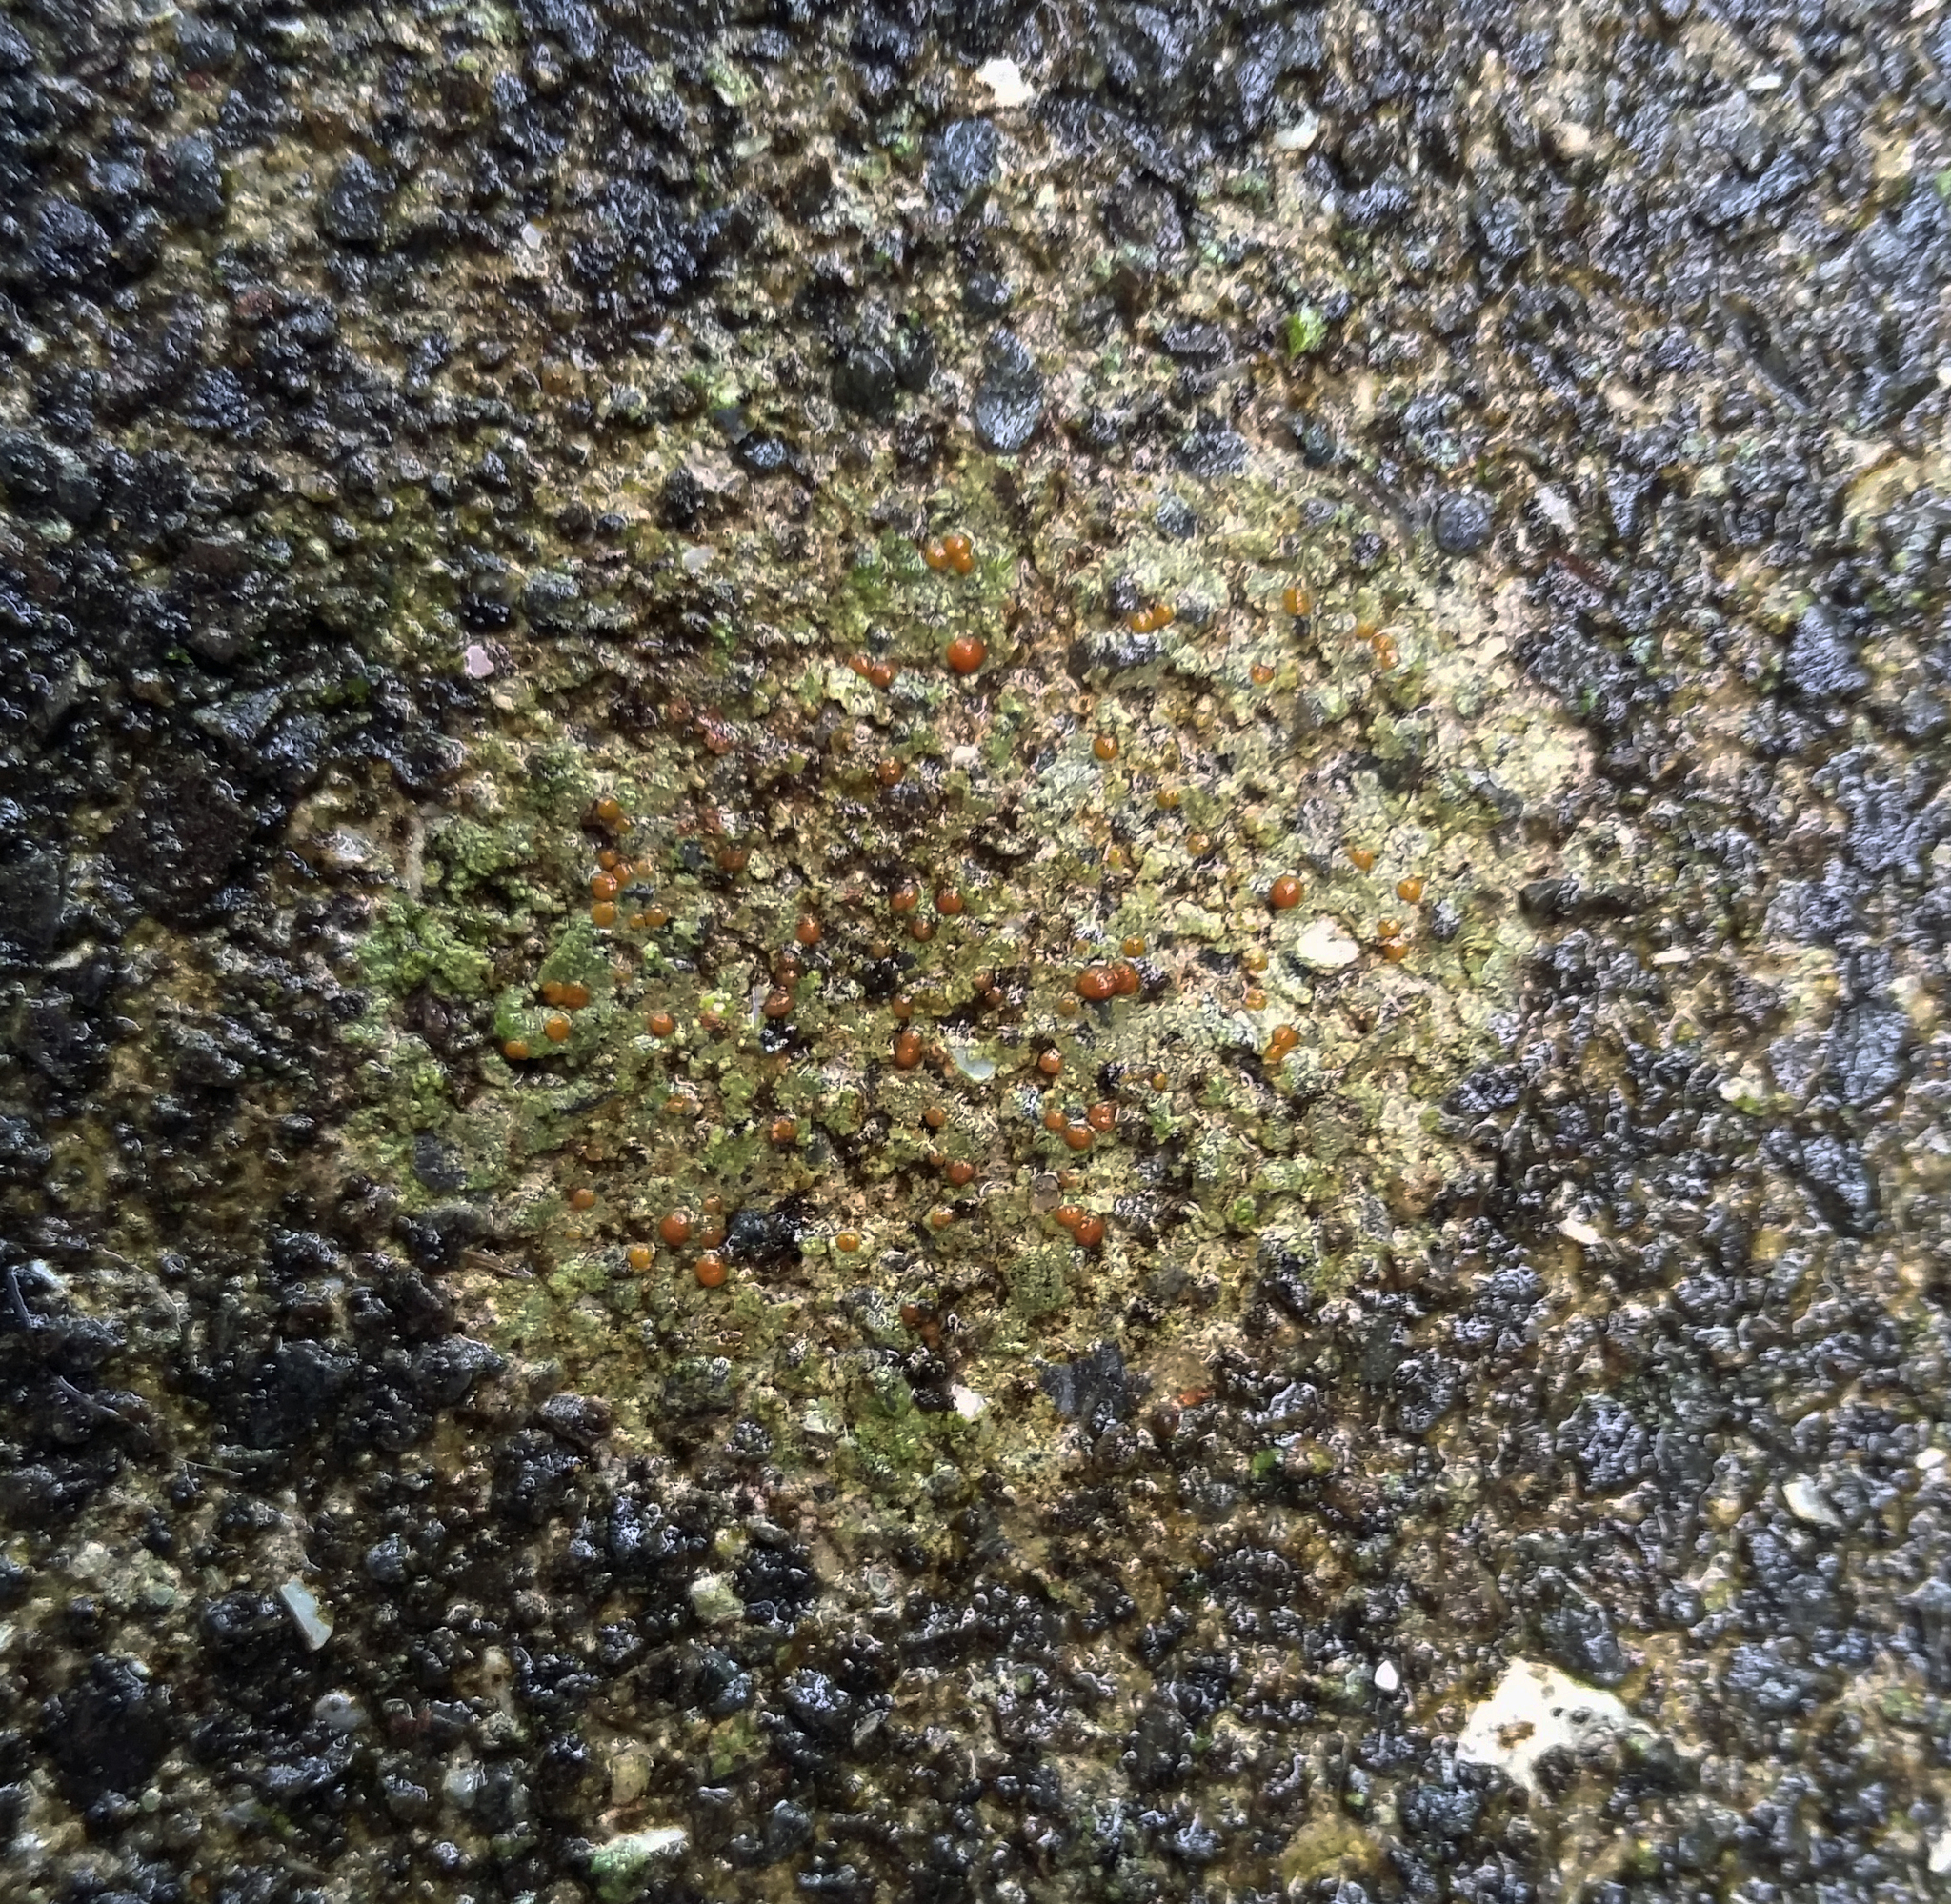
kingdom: Fungi
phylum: Ascomycota
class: Lecanoromycetes
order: Lecanorales
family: Psoraceae
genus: Protoblastenia
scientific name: Protoblastenia rupestris
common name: Chewing gum lichen
